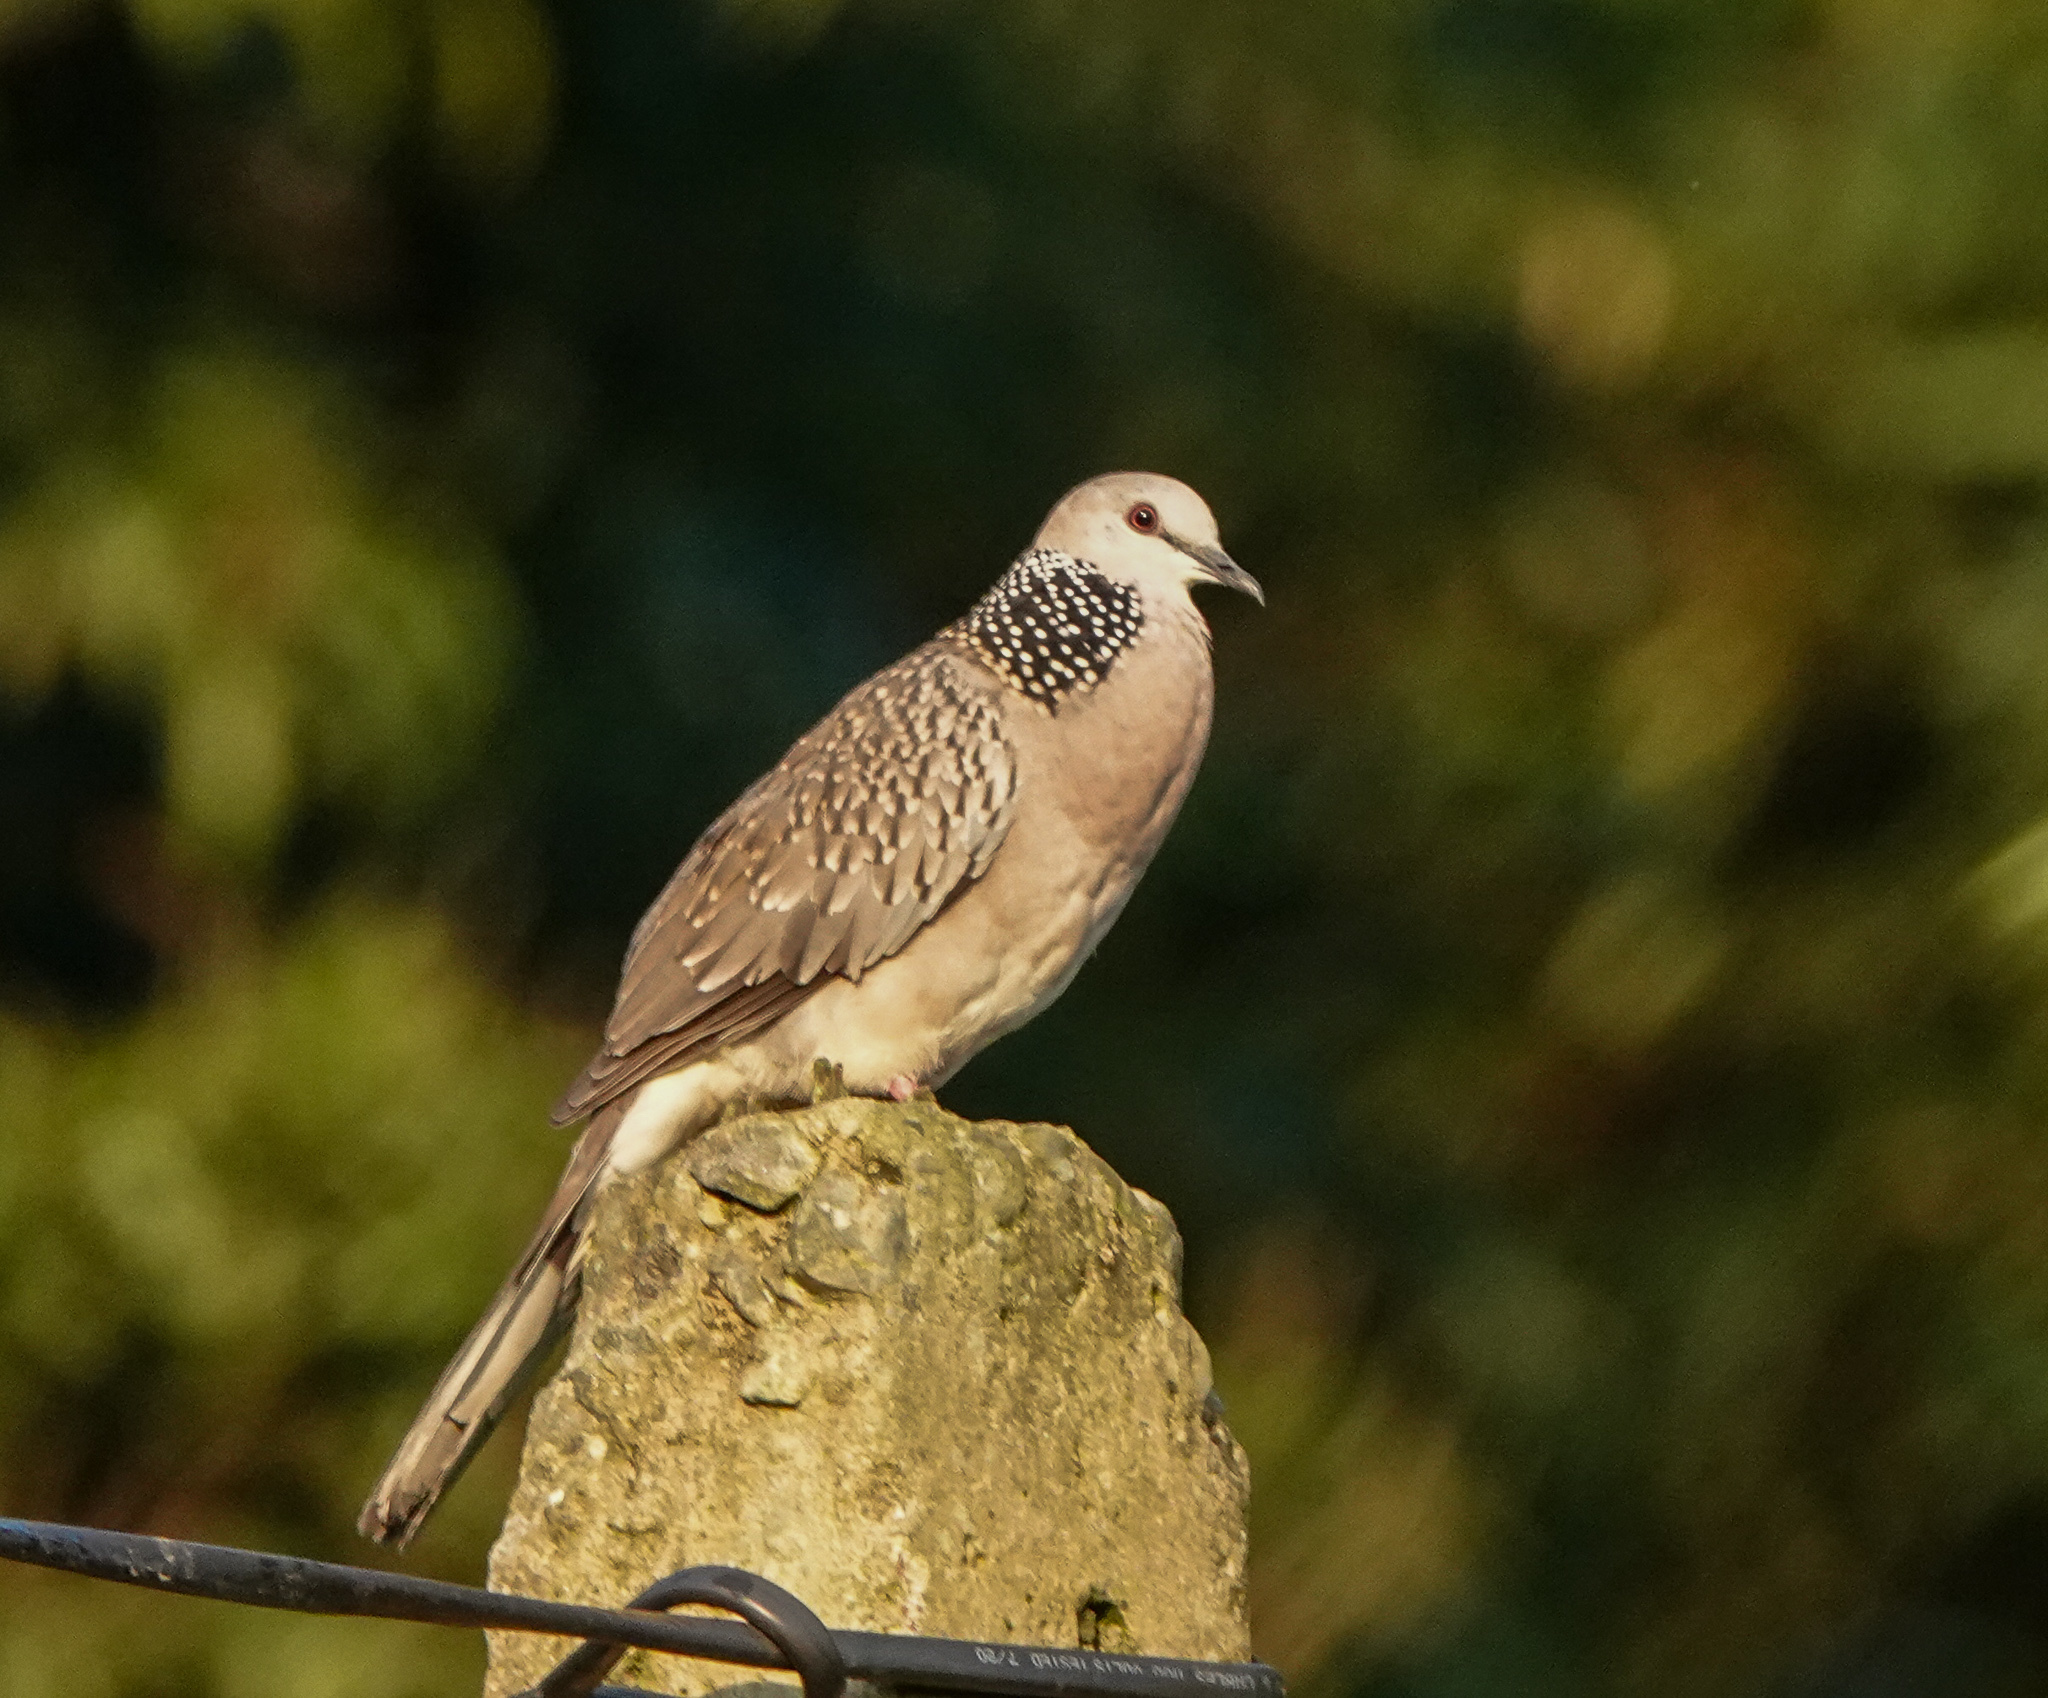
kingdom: Animalia
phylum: Chordata
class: Aves
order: Columbiformes
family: Columbidae
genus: Spilopelia
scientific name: Spilopelia chinensis
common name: Spotted dove
